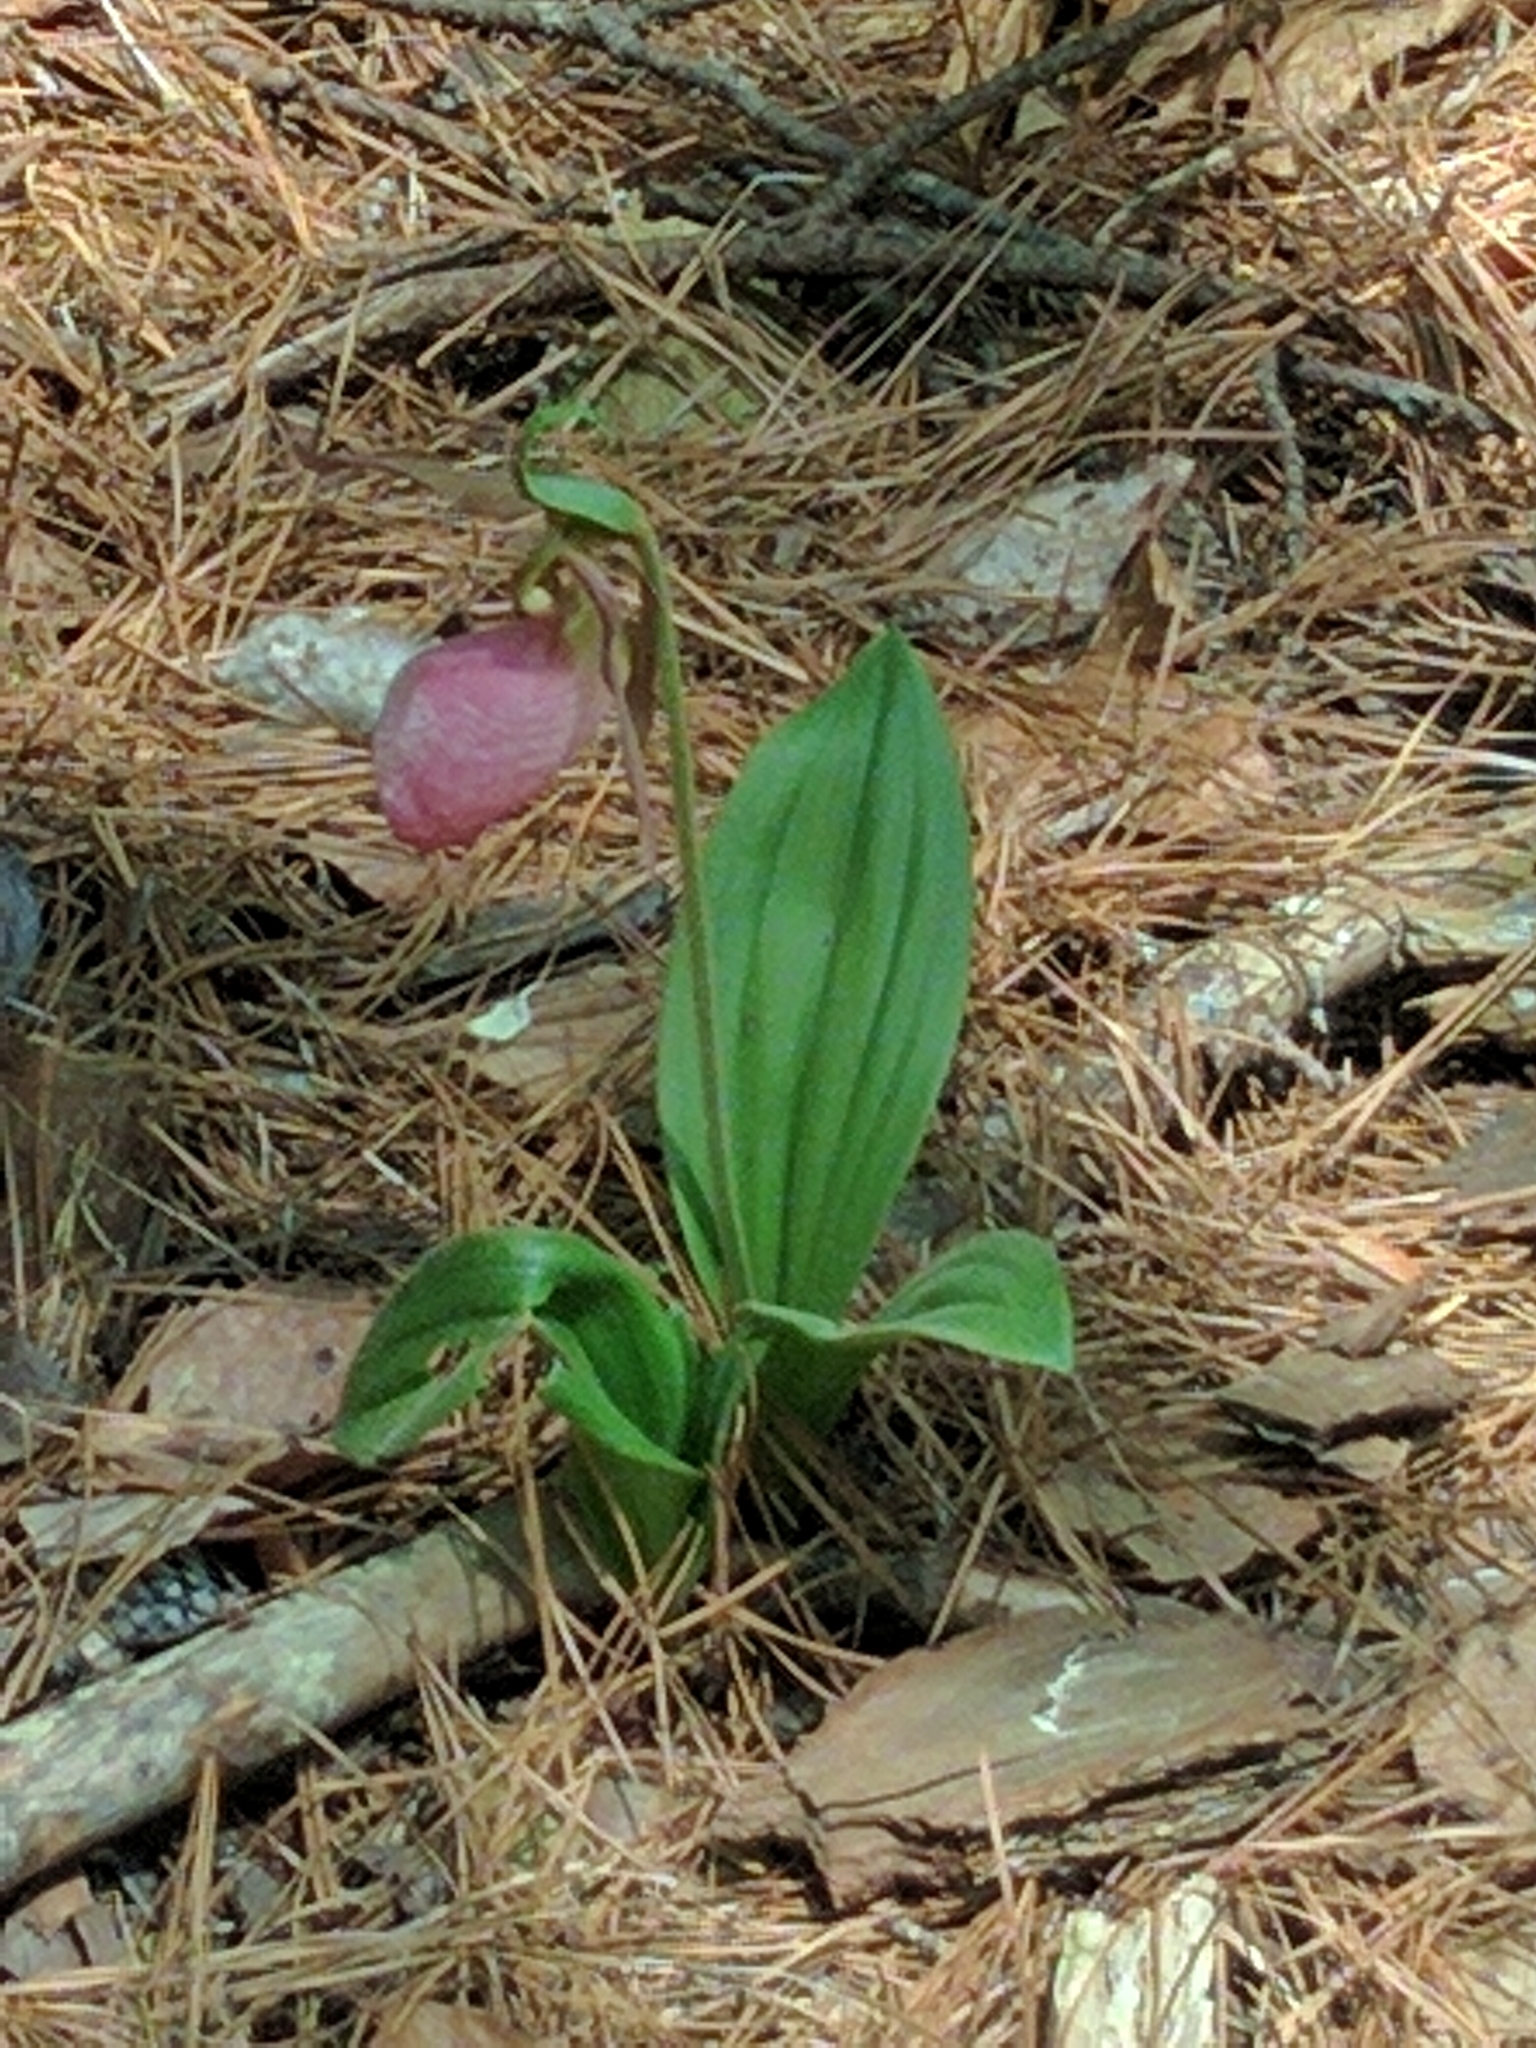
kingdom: Plantae
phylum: Tracheophyta
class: Liliopsida
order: Asparagales
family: Orchidaceae
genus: Cypripedium
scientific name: Cypripedium acaule
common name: Pink lady's-slipper
